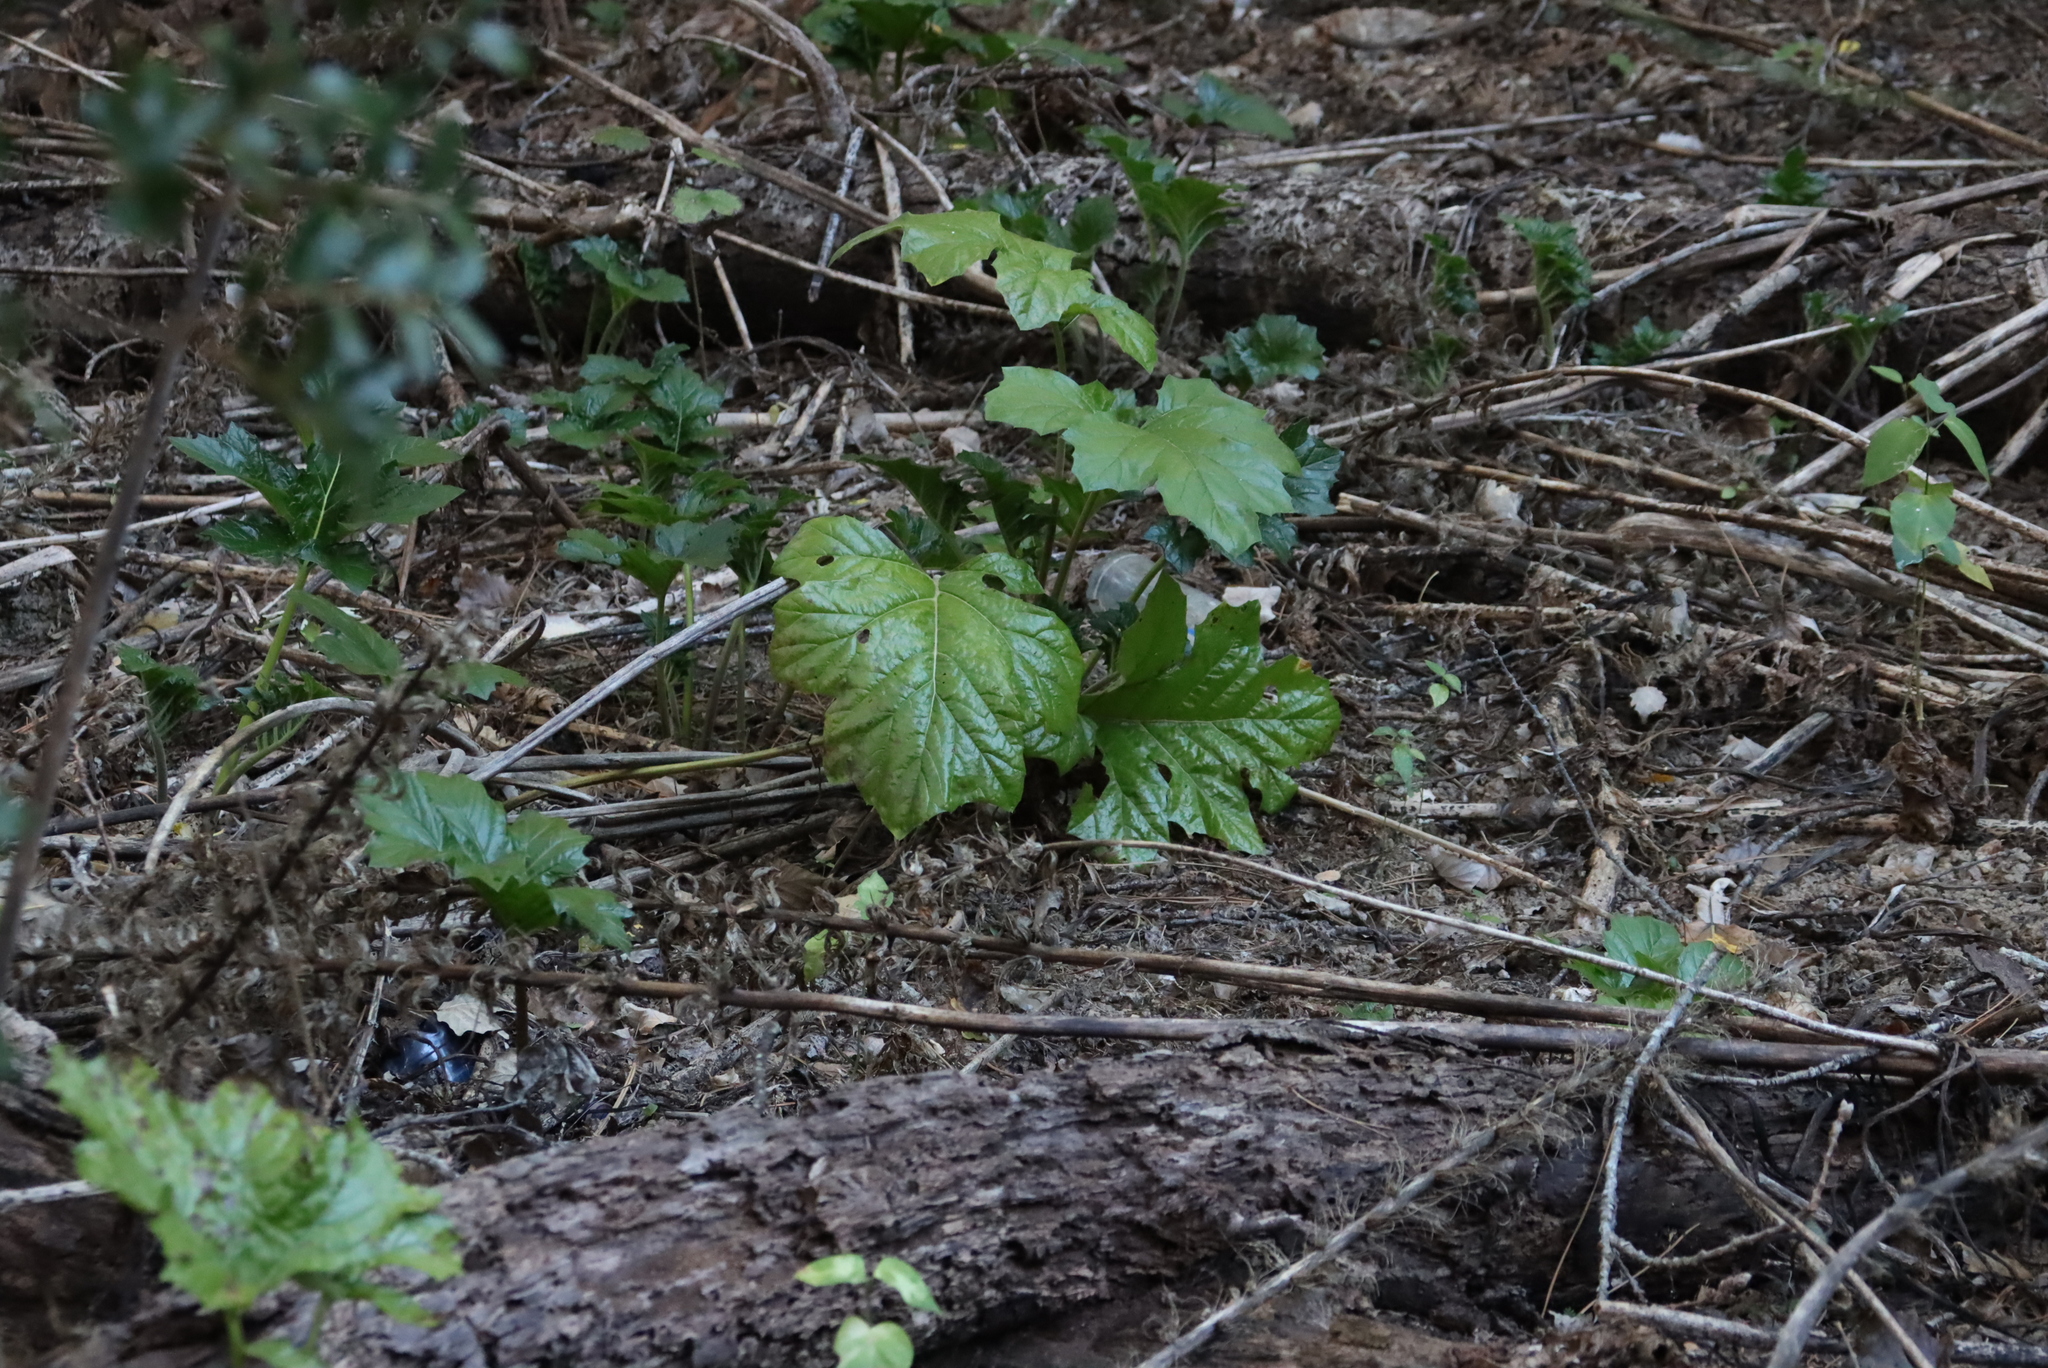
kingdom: Plantae
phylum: Tracheophyta
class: Magnoliopsida
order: Lamiales
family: Acanthaceae
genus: Acanthus
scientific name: Acanthus mollis
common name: Bear's-breech
